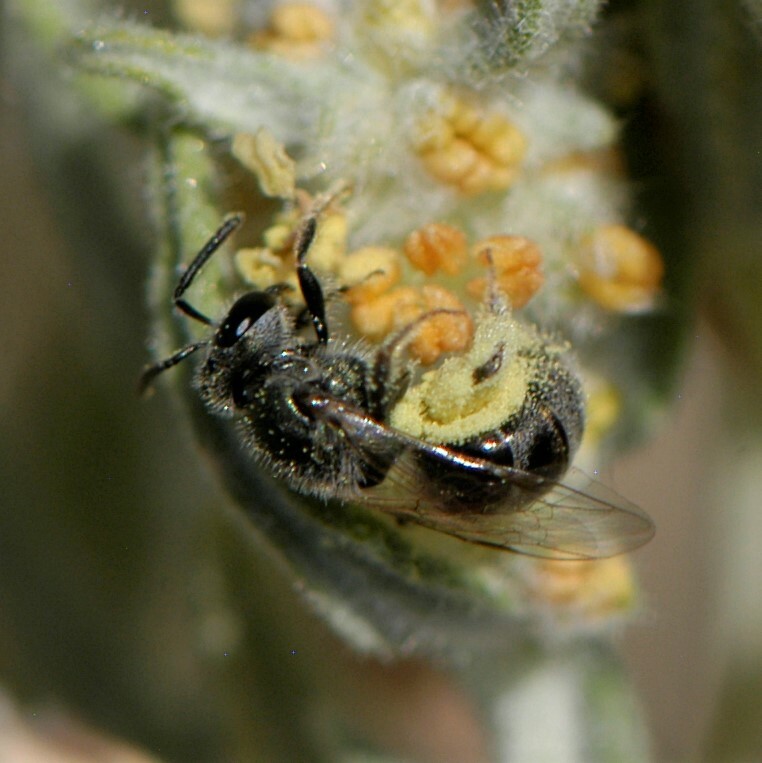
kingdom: Animalia
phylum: Arthropoda
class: Insecta
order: Hymenoptera
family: Halictidae
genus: Dialictus
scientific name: Dialictus
